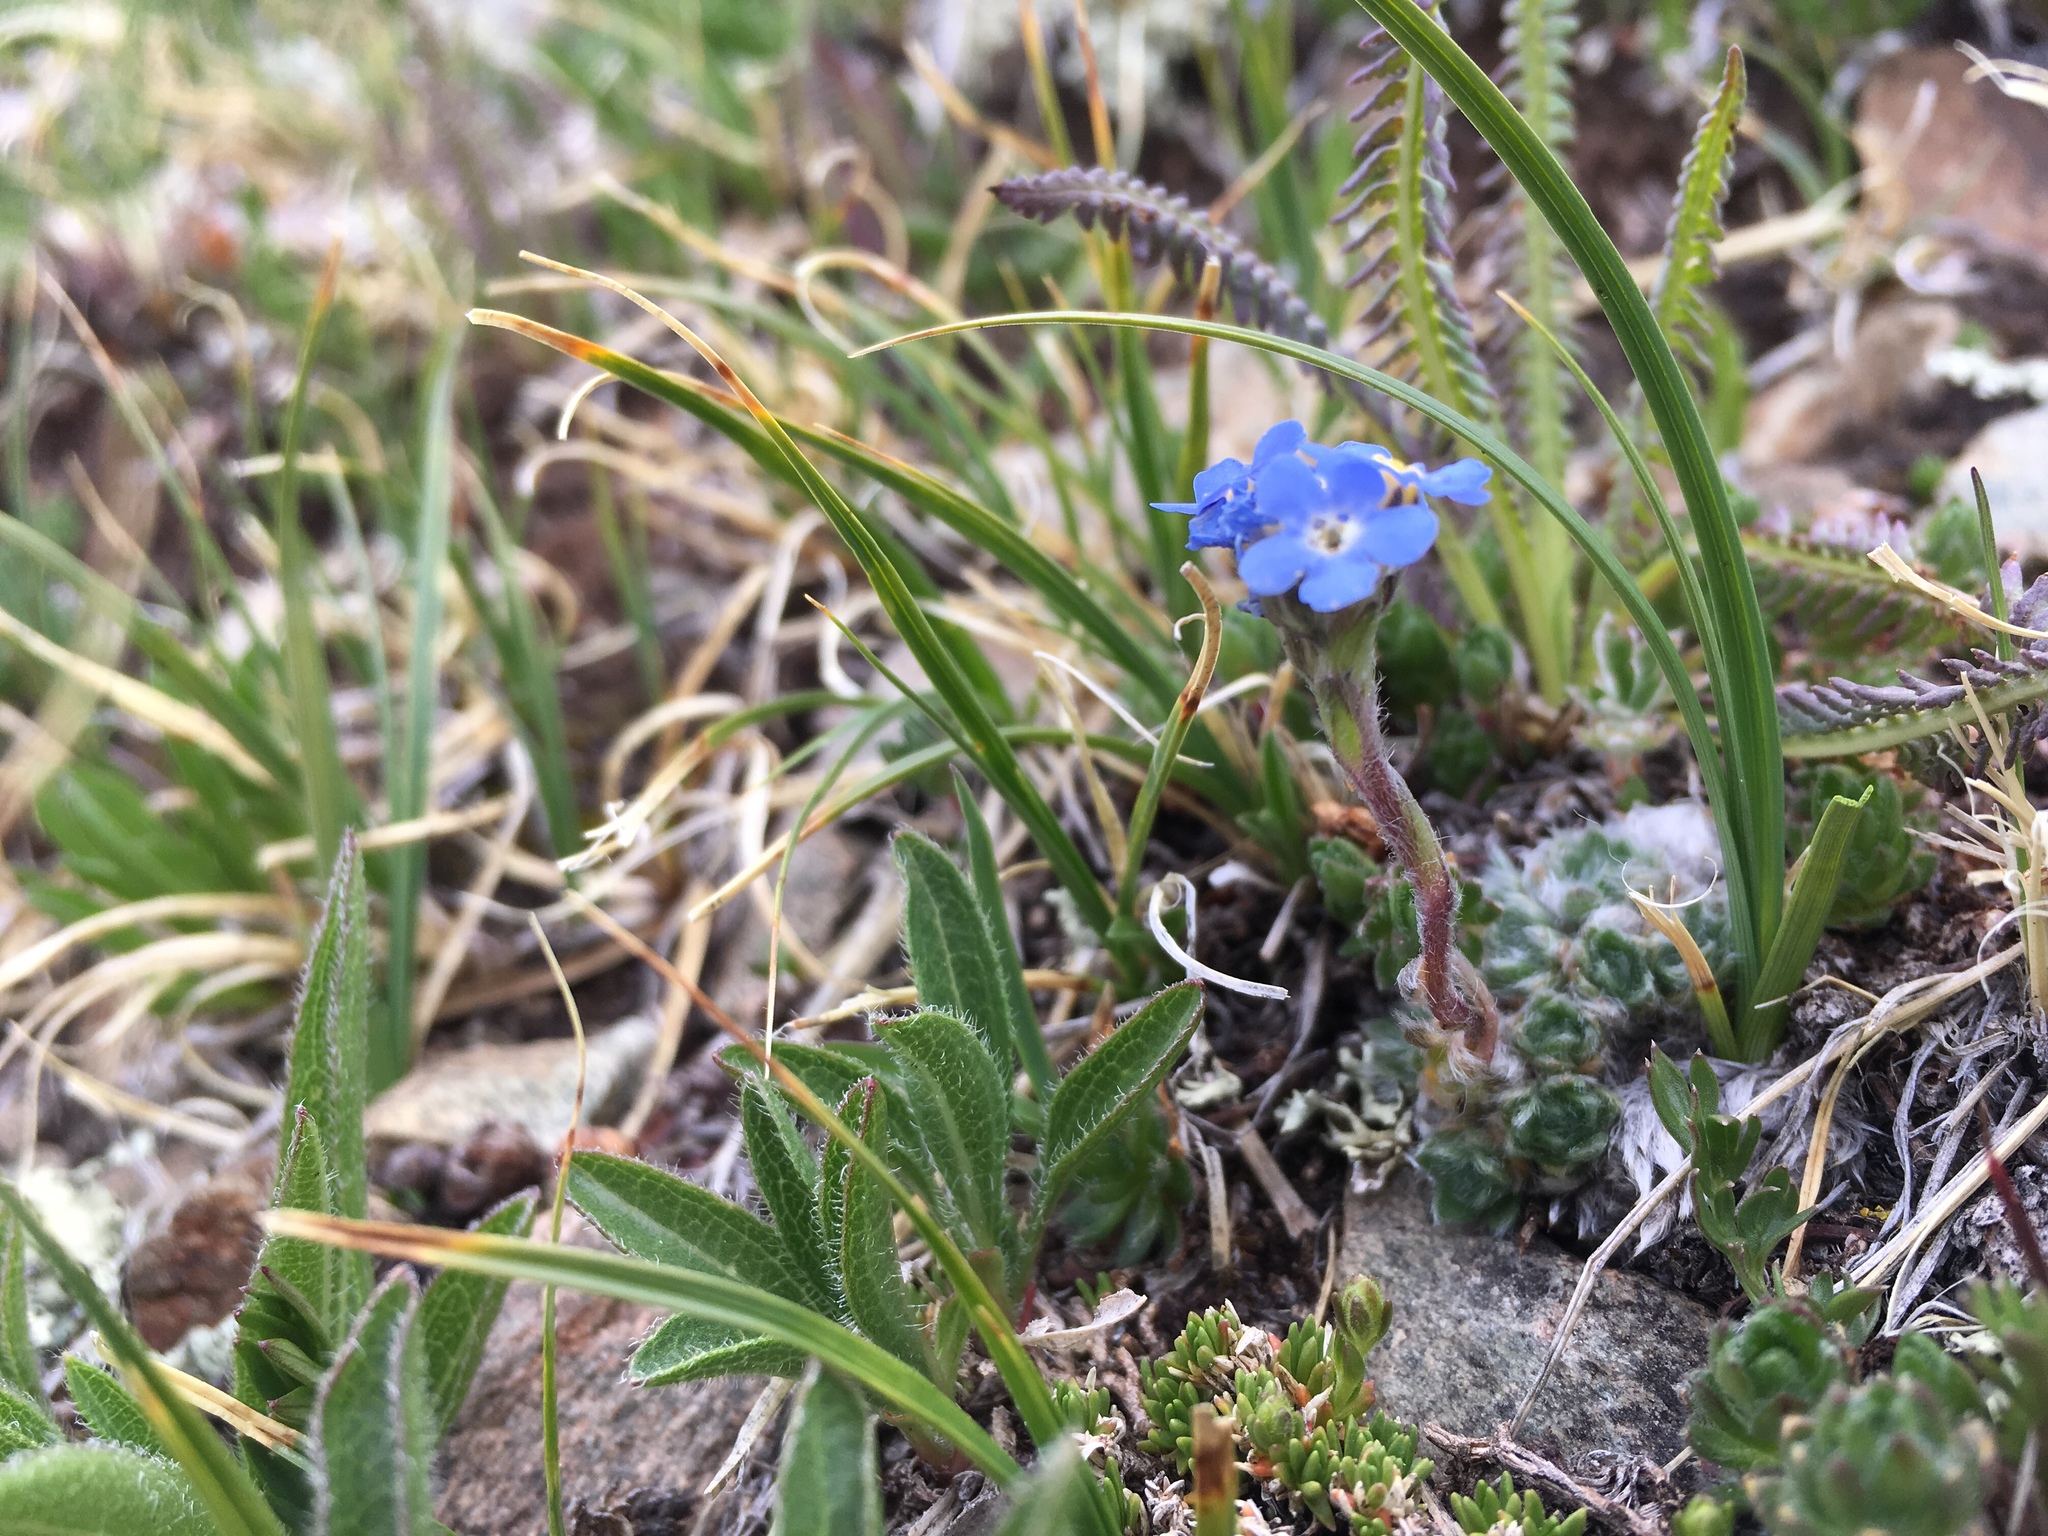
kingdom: Plantae
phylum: Tracheophyta
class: Magnoliopsida
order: Boraginales
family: Boraginaceae
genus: Eritrichium
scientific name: Eritrichium argenteum
